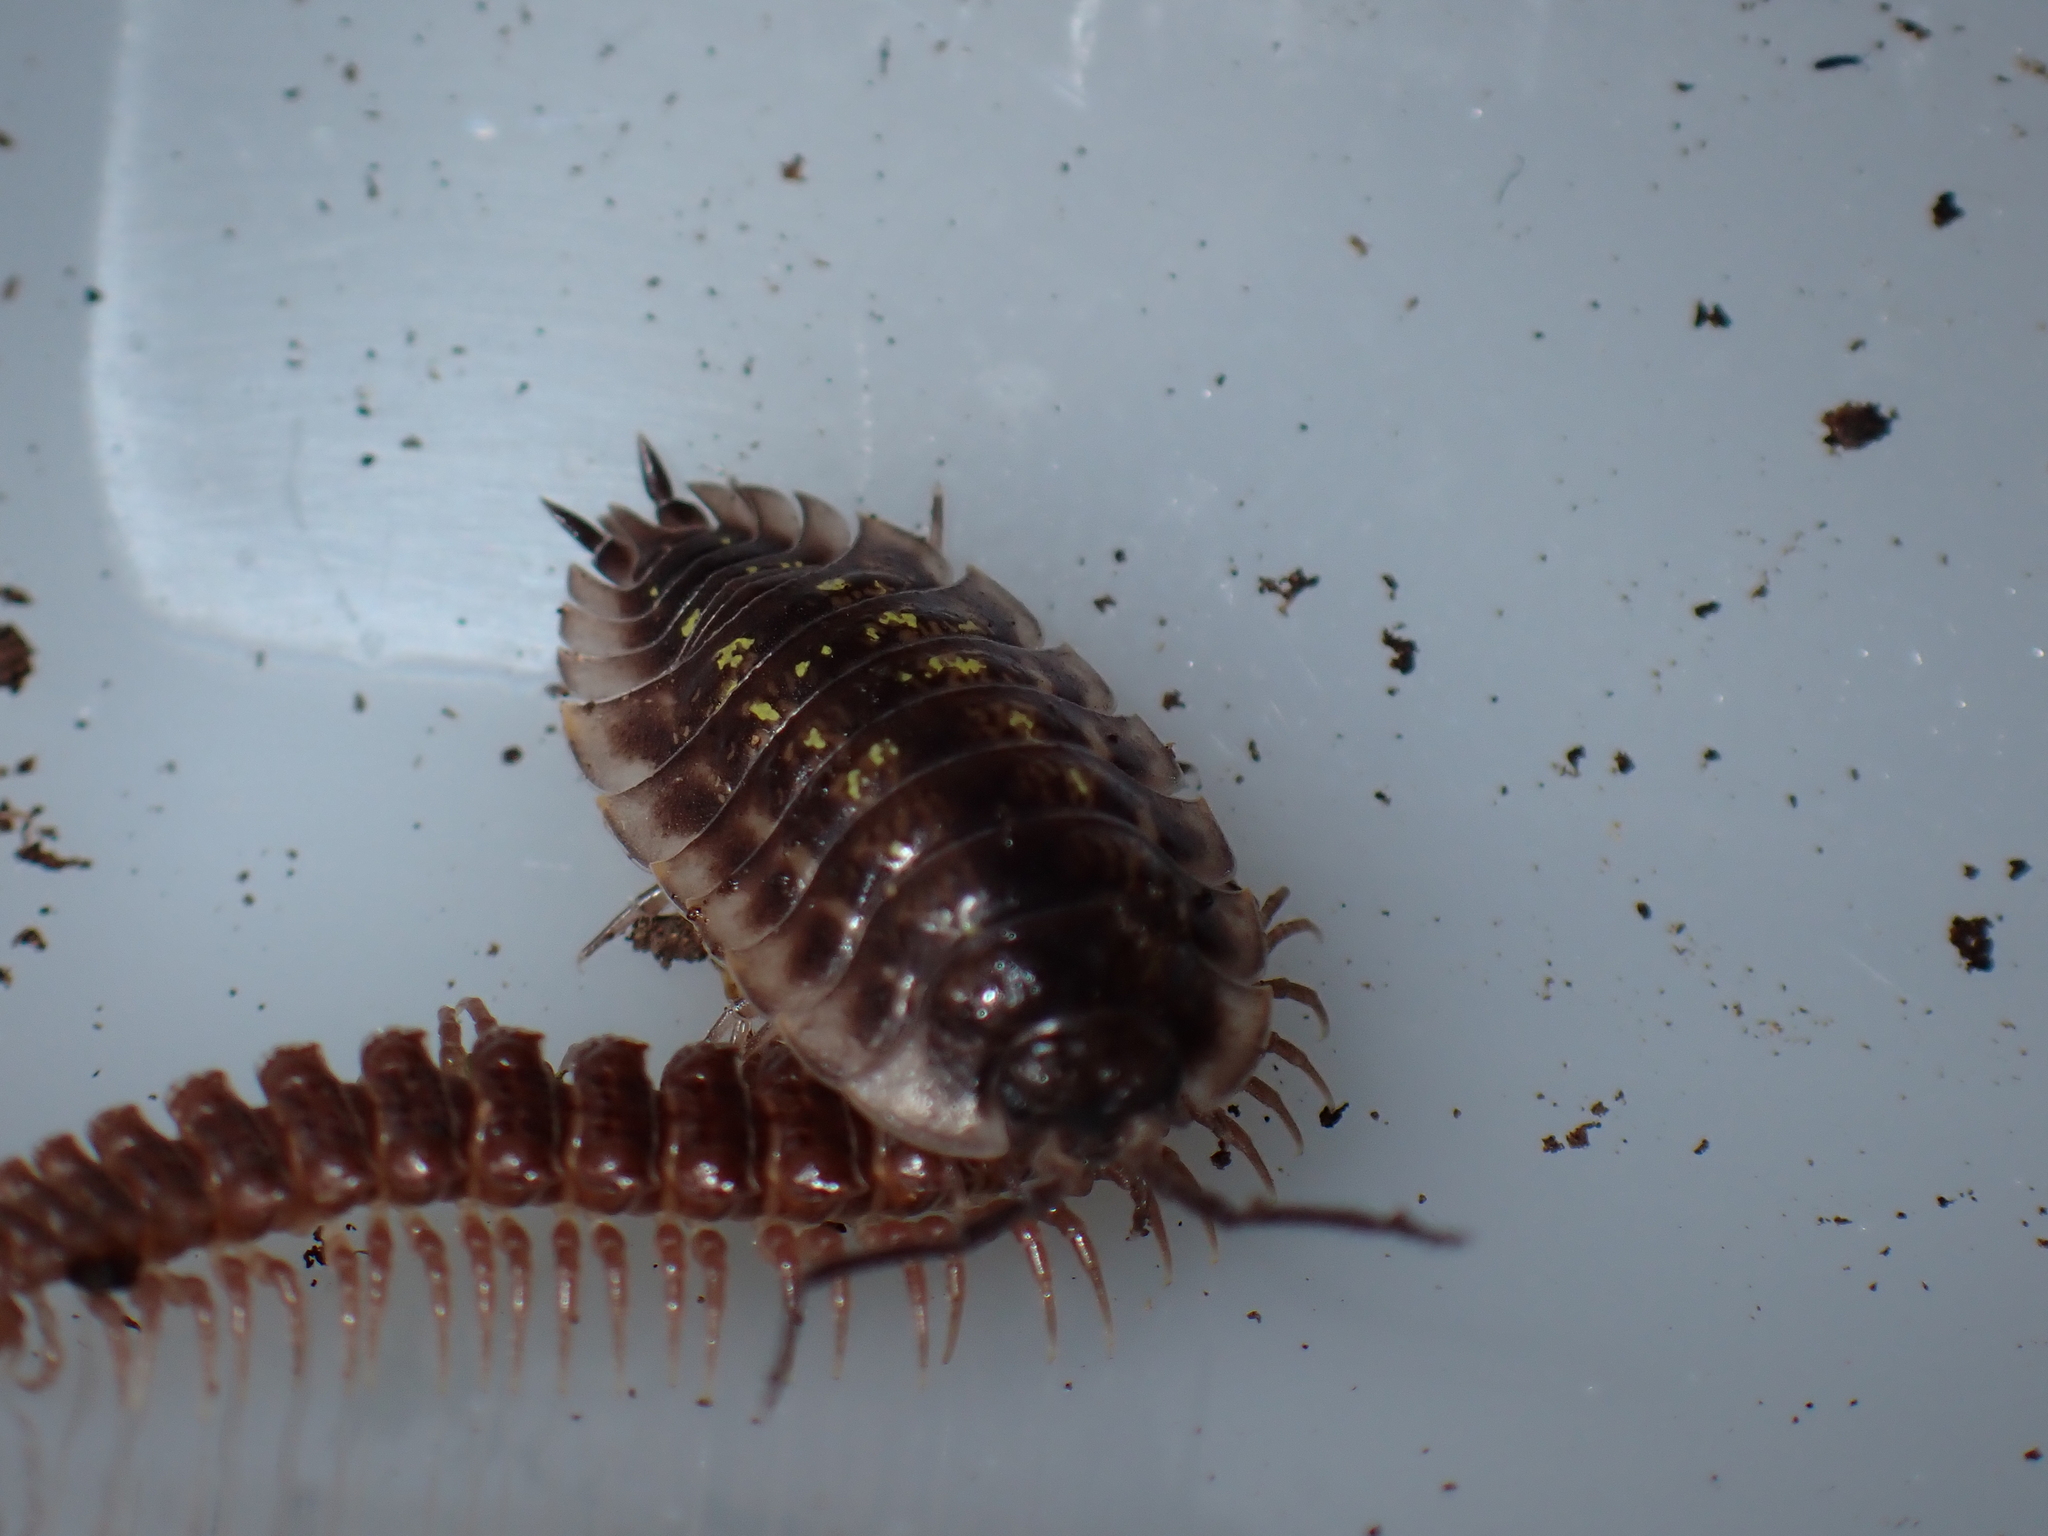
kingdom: Animalia
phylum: Arthropoda
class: Malacostraca
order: Isopoda
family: Oniscidae
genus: Oniscus
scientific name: Oniscus asellus
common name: Common shiny woodlouse
